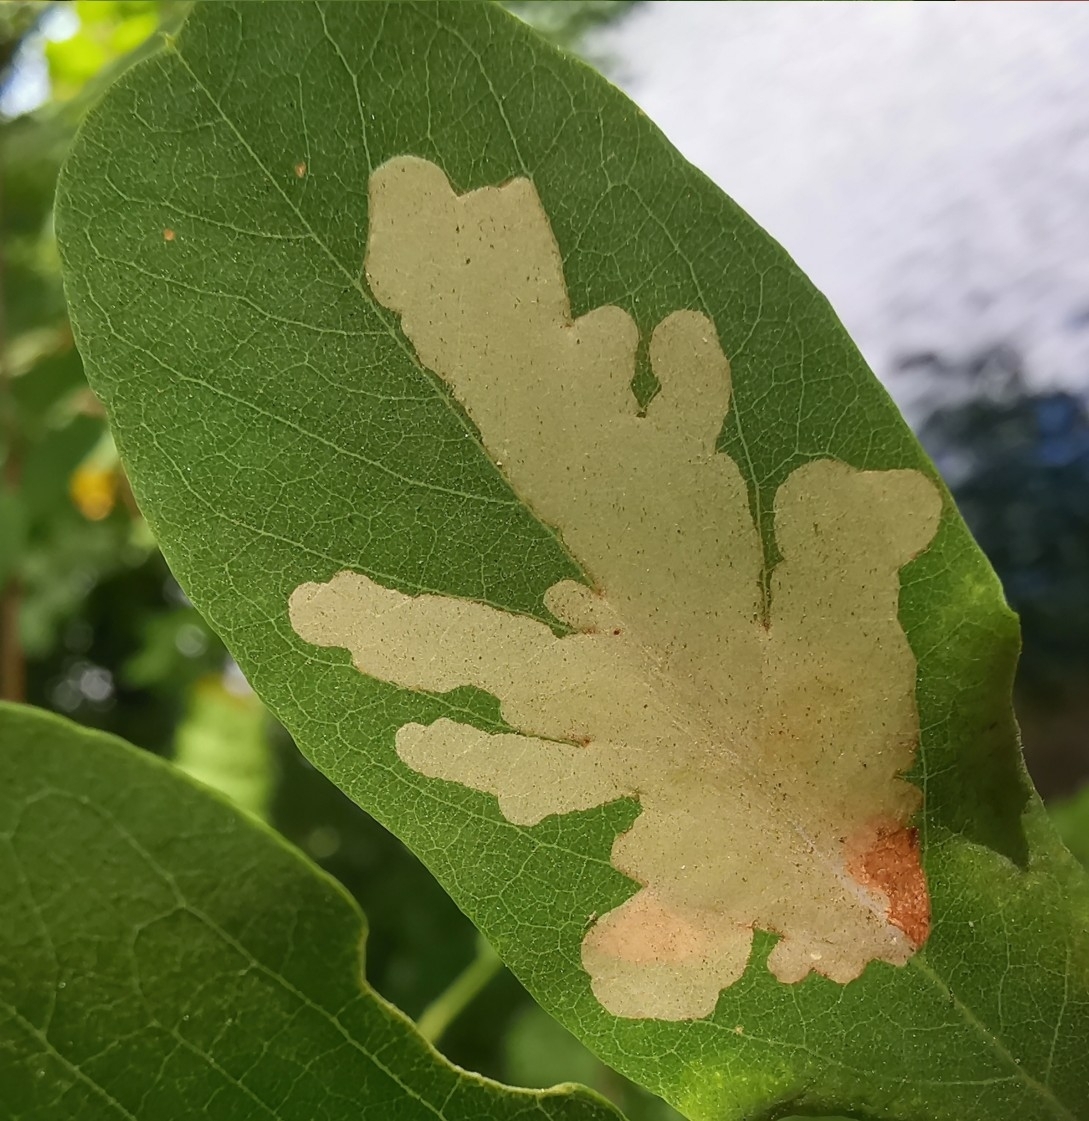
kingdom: Animalia
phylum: Arthropoda
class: Insecta
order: Lepidoptera
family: Gracillariidae
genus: Parectopa
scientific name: Parectopa robiniella
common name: Locust digitate leafminer
